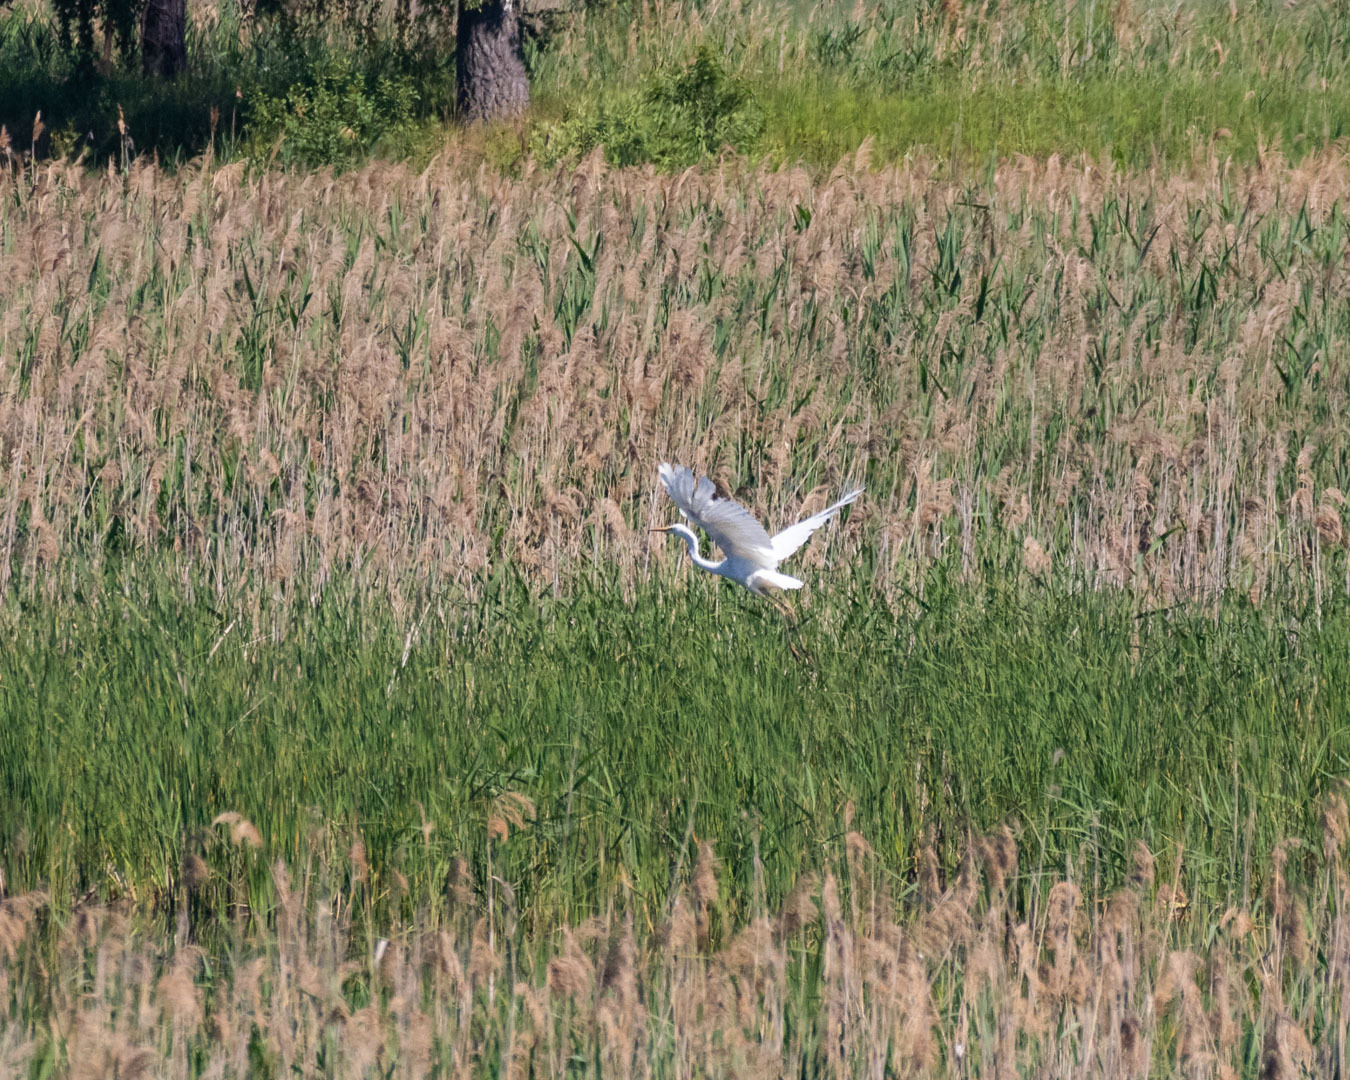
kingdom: Animalia
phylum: Chordata
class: Aves
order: Pelecaniformes
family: Ardeidae
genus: Ardea
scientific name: Ardea alba
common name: Great egret
